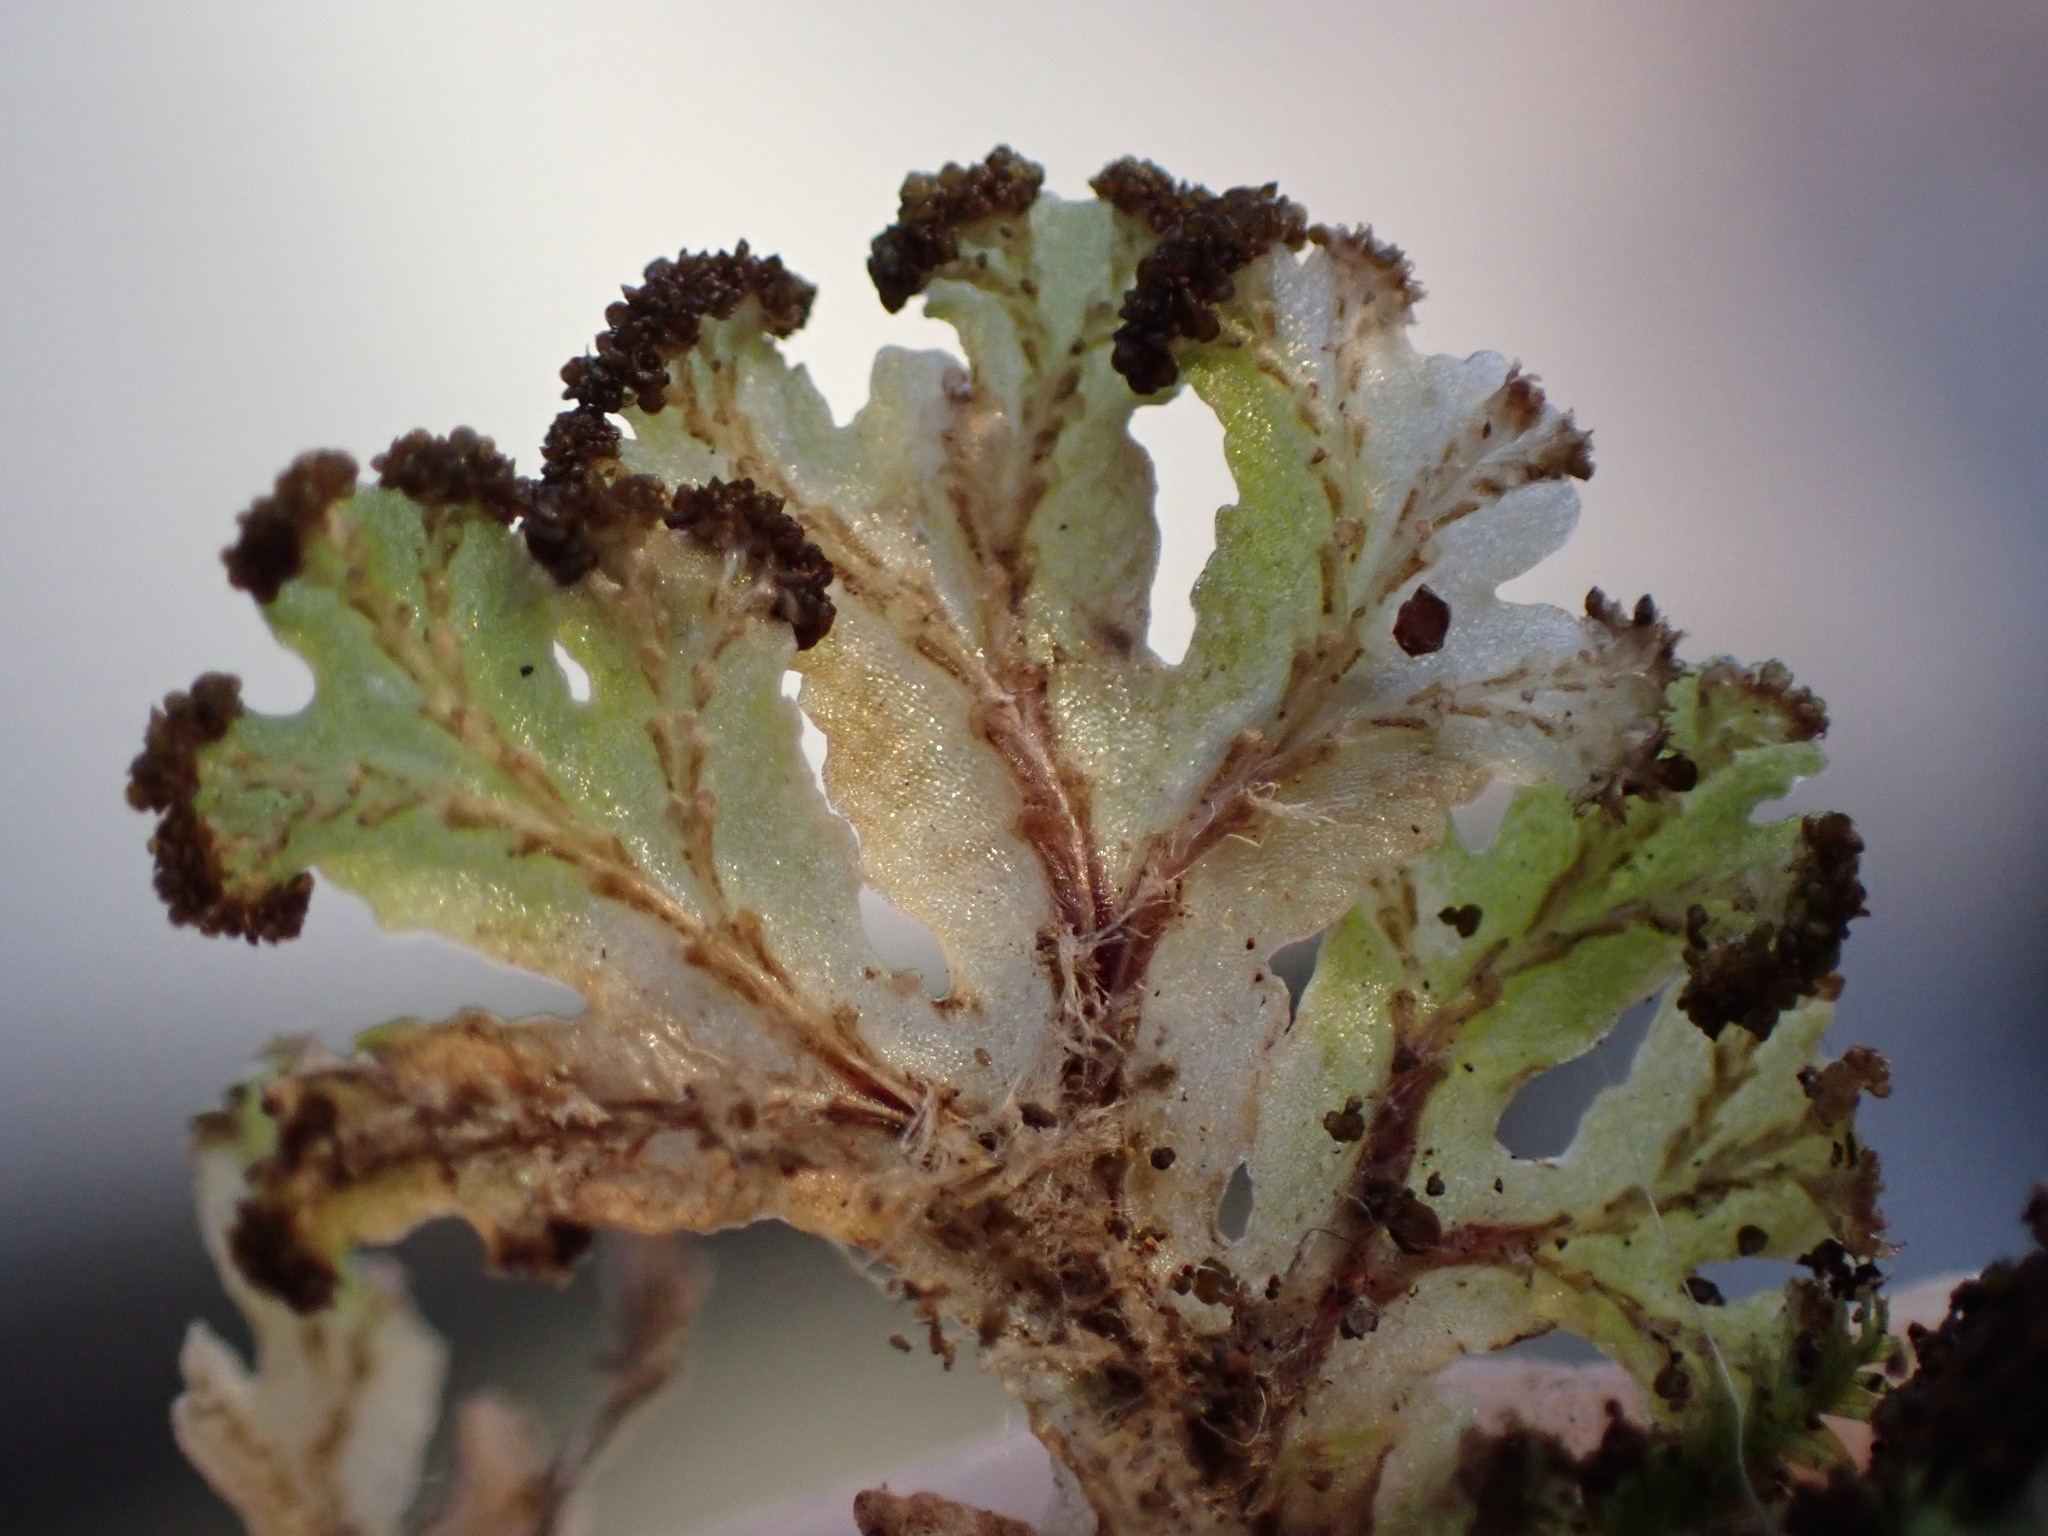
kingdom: Plantae
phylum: Marchantiophyta
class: Marchantiopsida
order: Marchantiales
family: Conocephalaceae
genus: Sandea
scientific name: Sandea japonica
